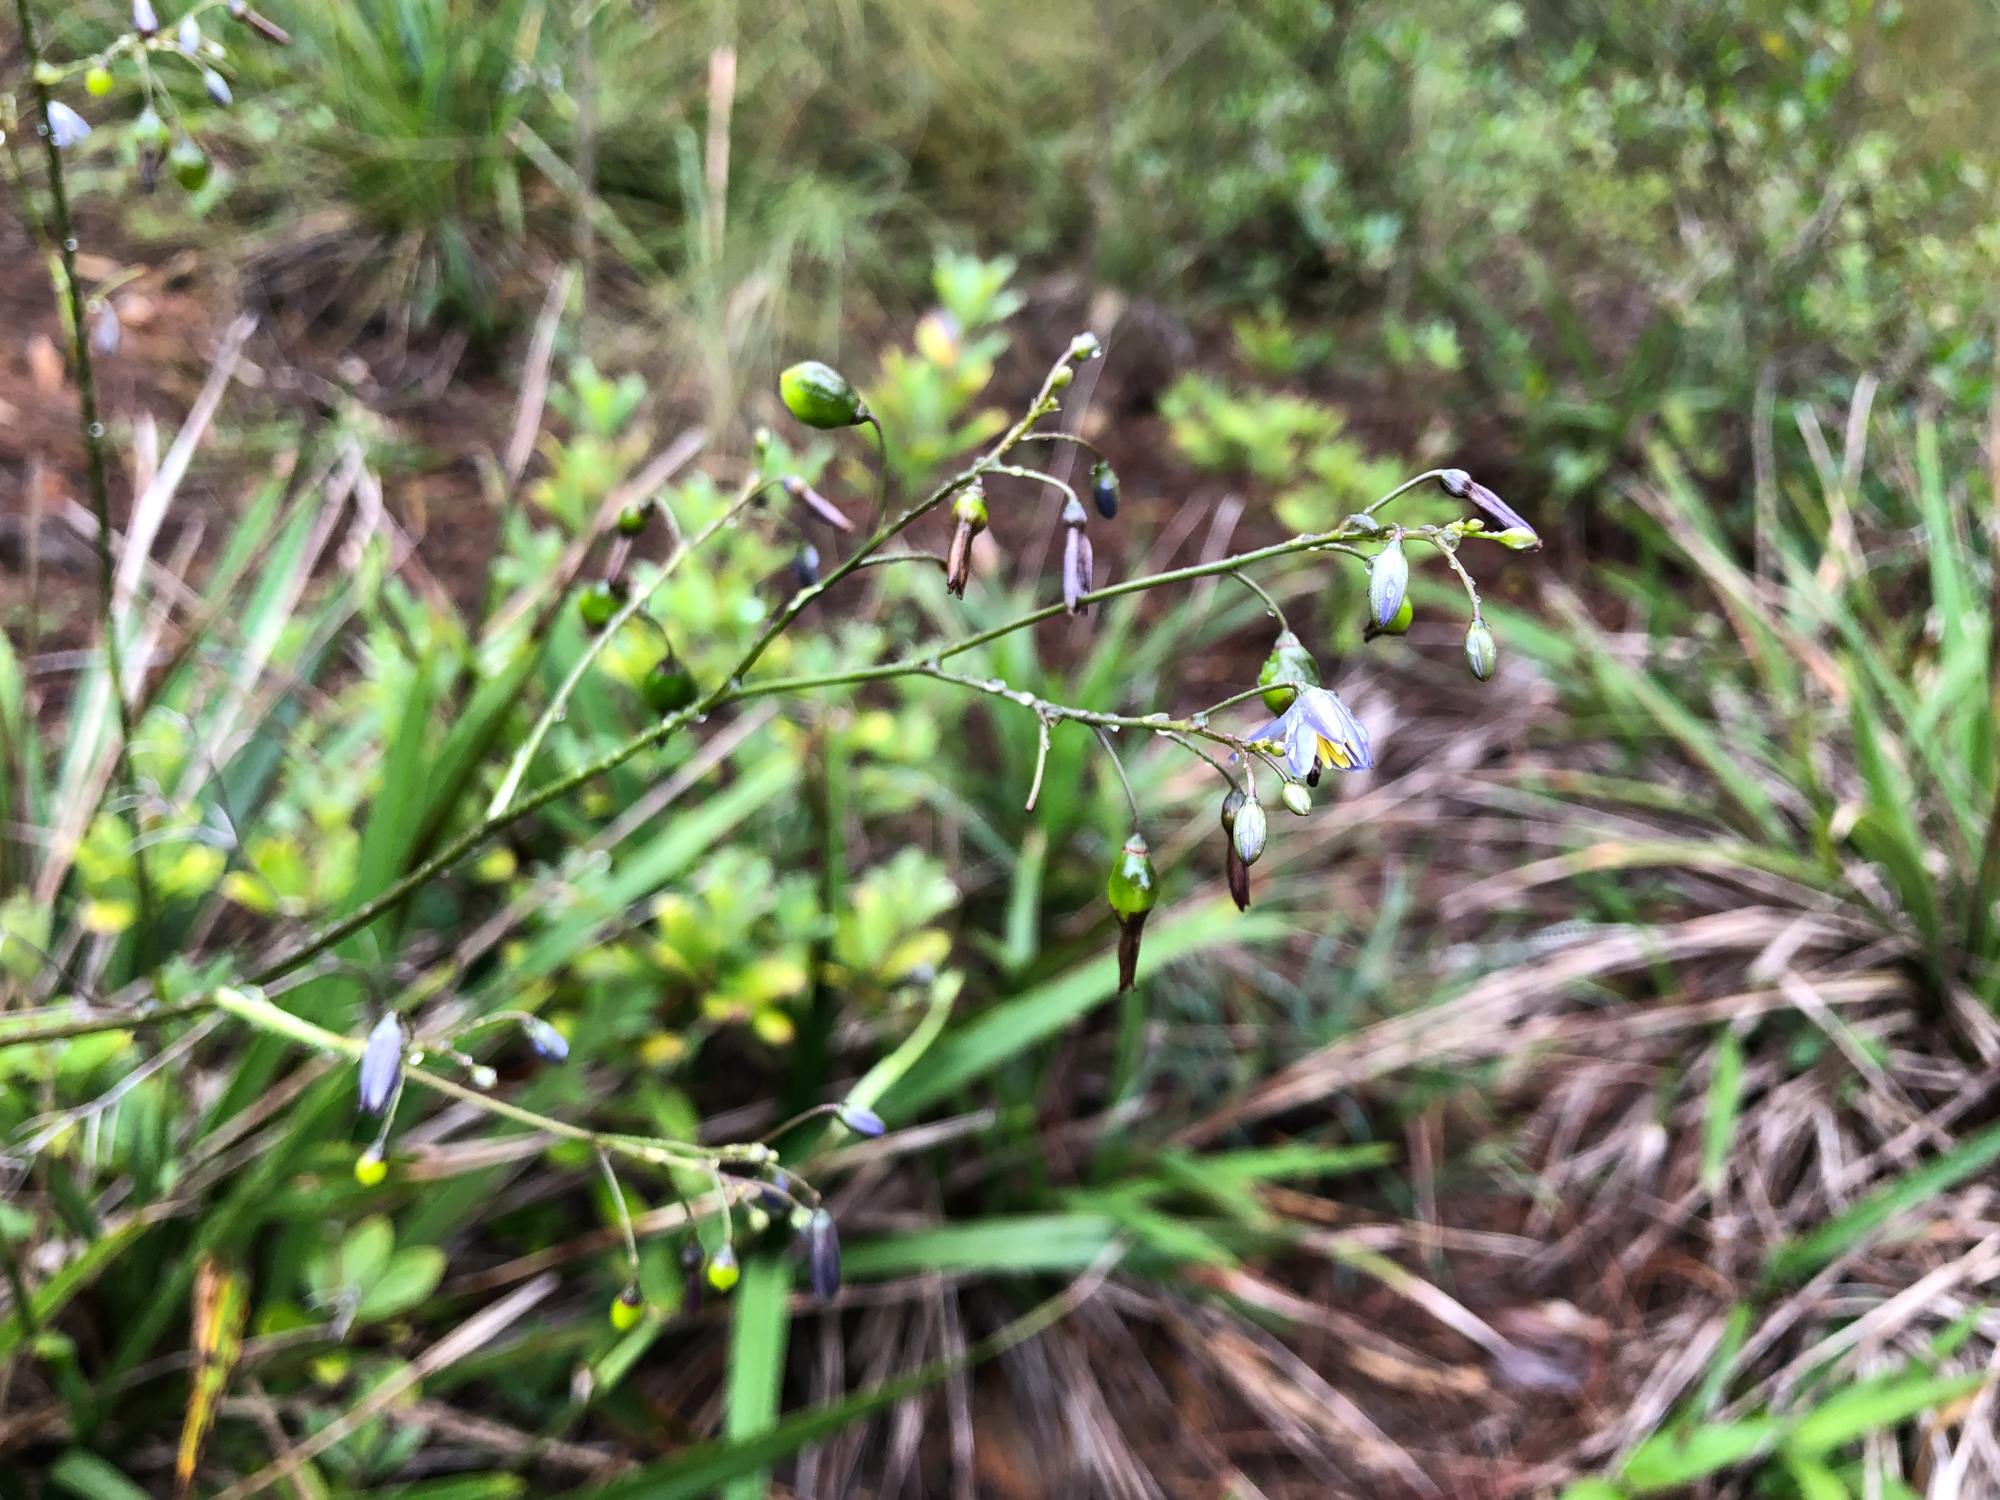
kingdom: Plantae
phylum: Tracheophyta
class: Liliopsida
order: Asparagales
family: Asphodelaceae
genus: Dianella
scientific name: Dianella ensifolia
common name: New zealand lilyplant
